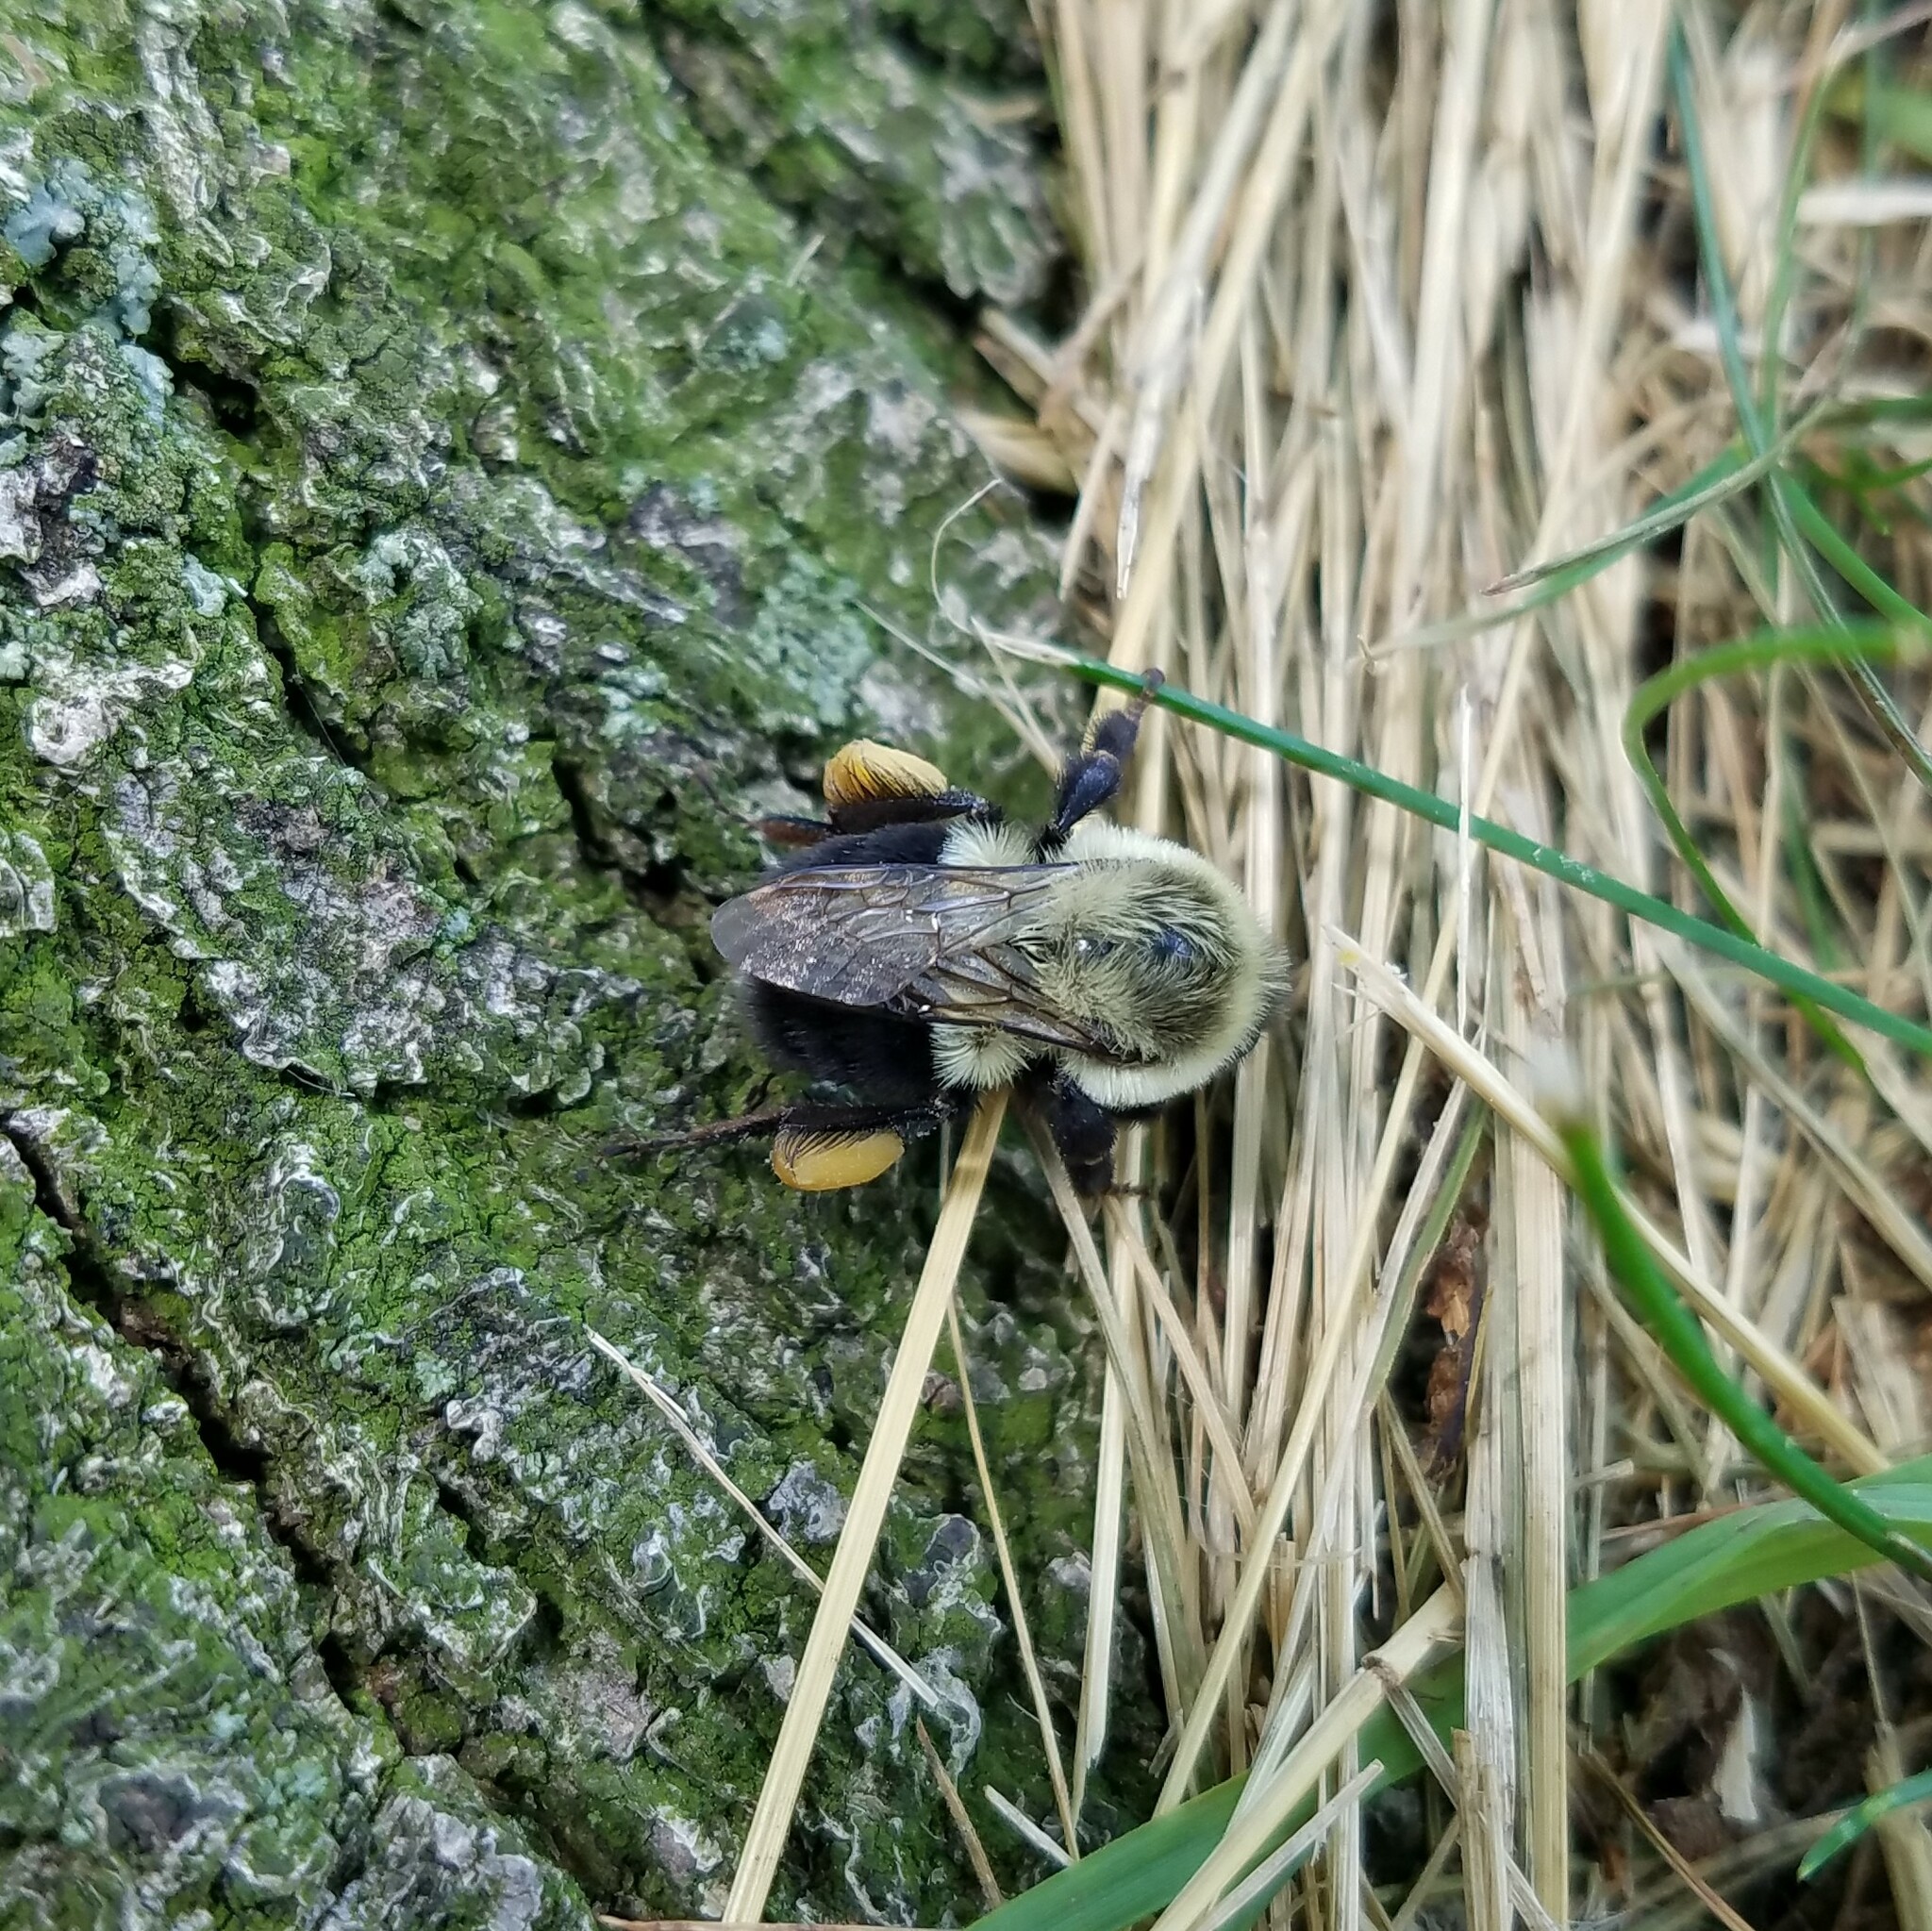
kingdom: Animalia
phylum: Arthropoda
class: Insecta
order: Hymenoptera
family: Apidae
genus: Bombus
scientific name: Bombus impatiens
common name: Common eastern bumble bee
